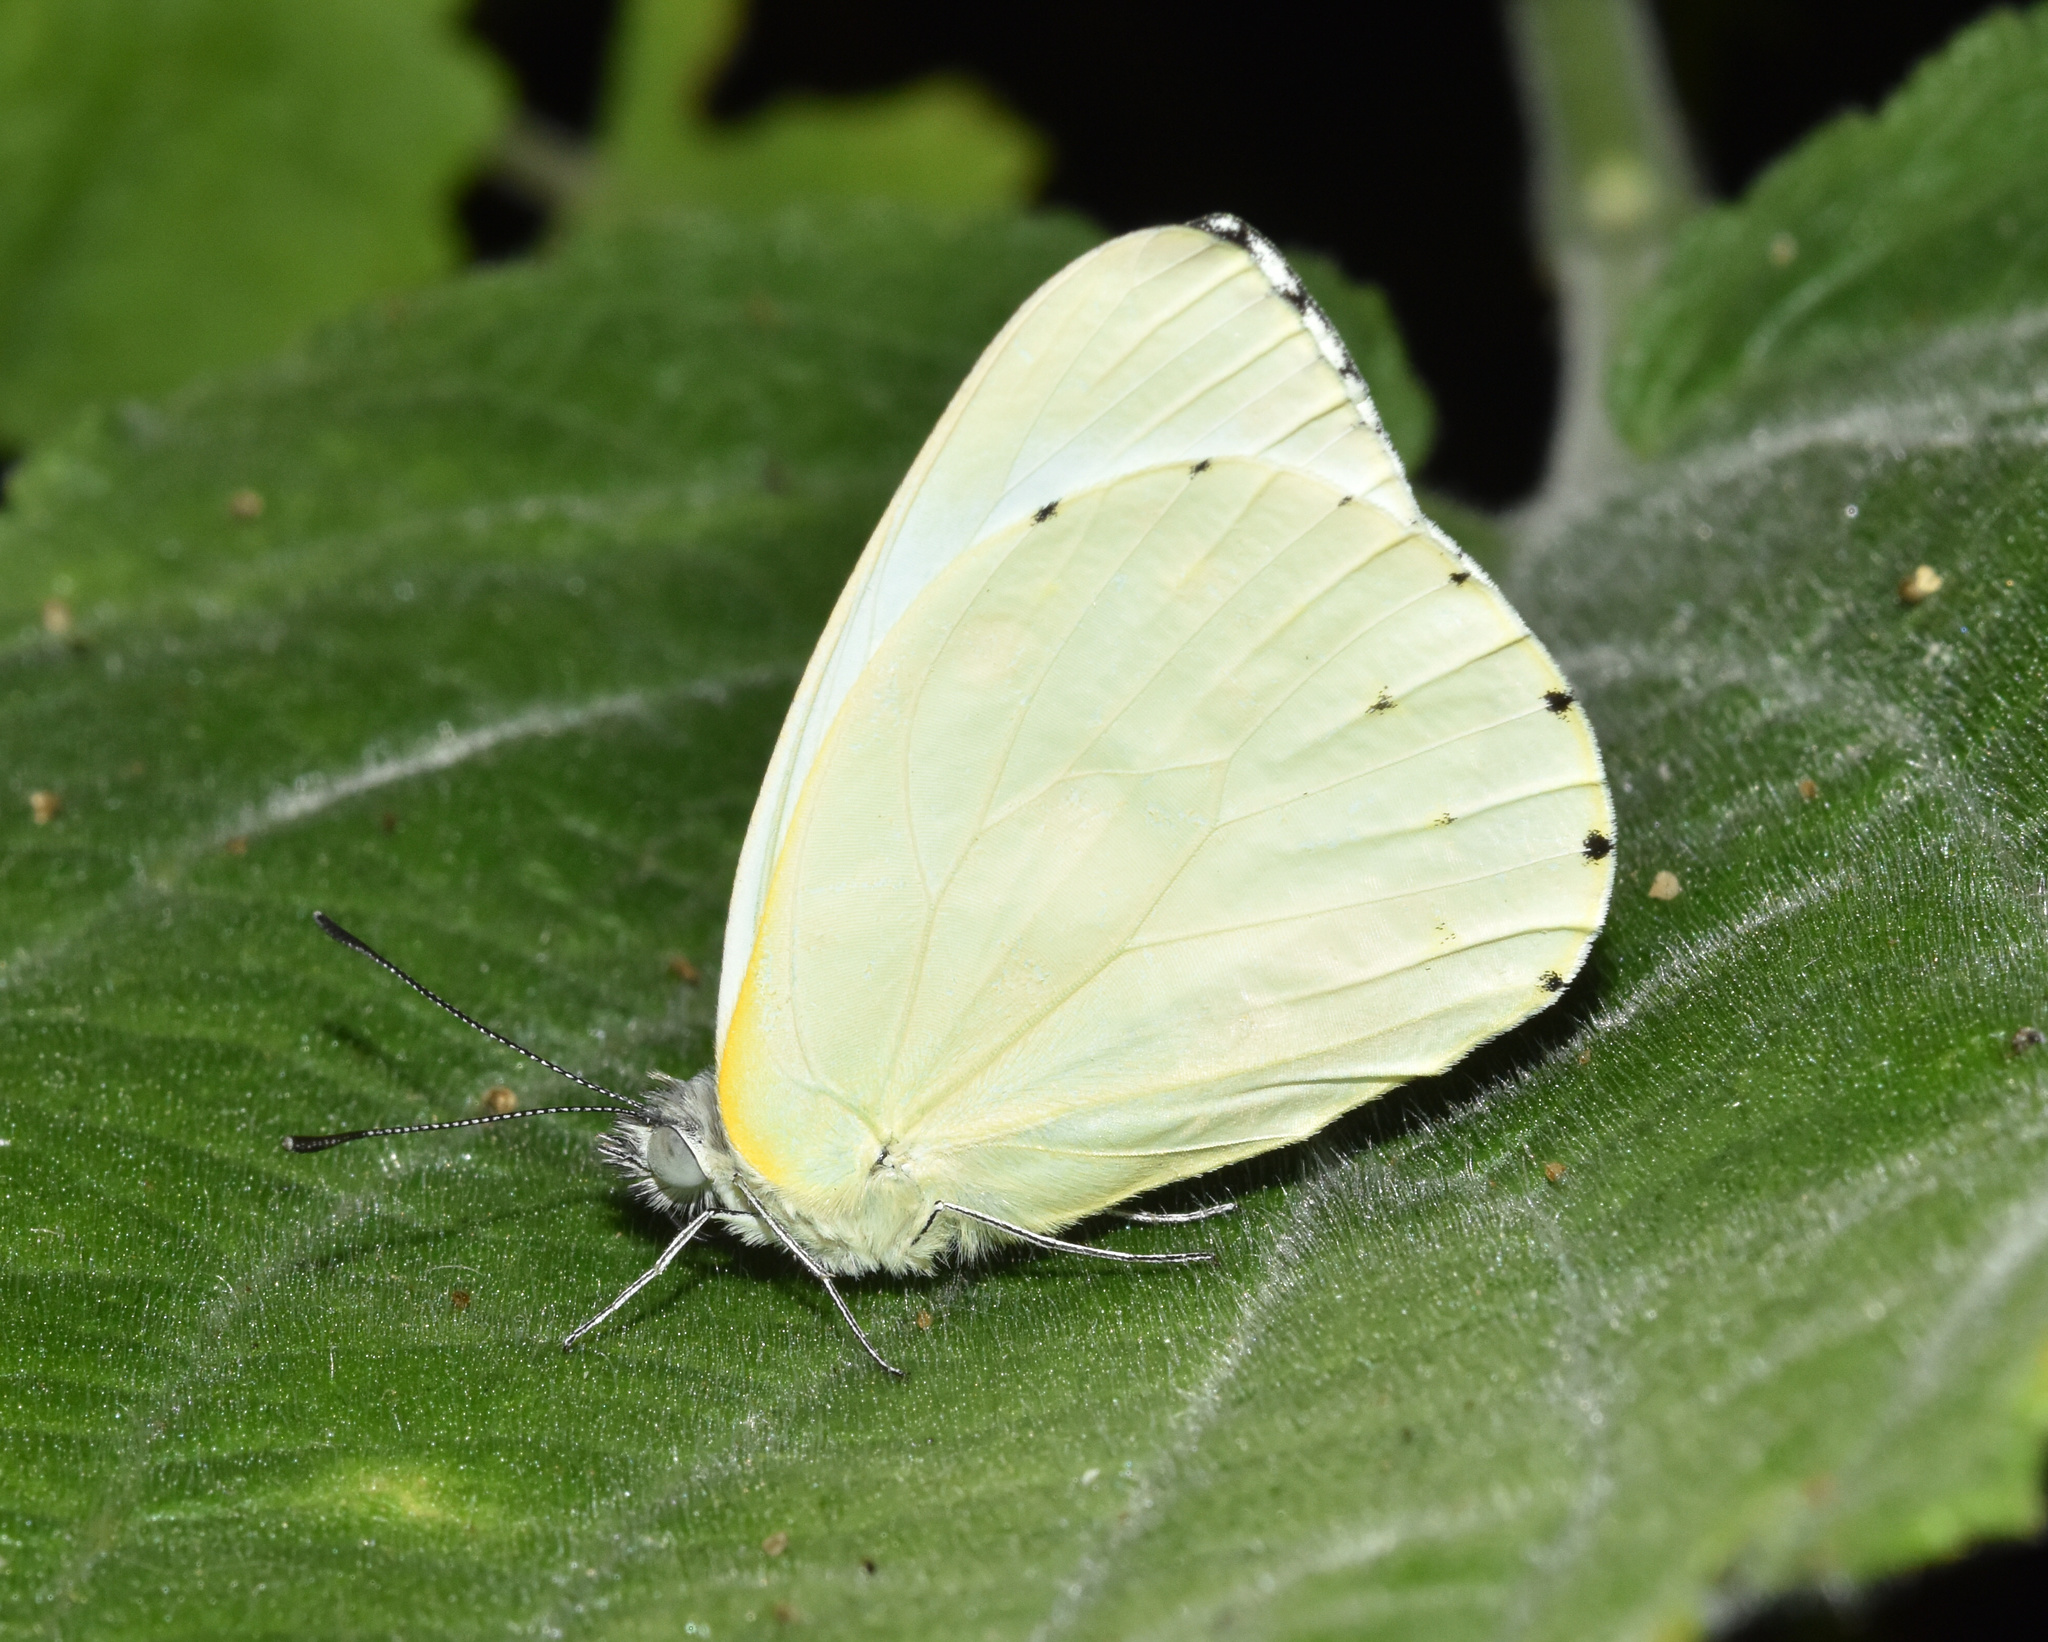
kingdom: Animalia
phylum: Arthropoda
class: Insecta
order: Lepidoptera
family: Pieridae
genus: Dixeia
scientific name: Dixeia pigea
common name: Ant-heap small white
